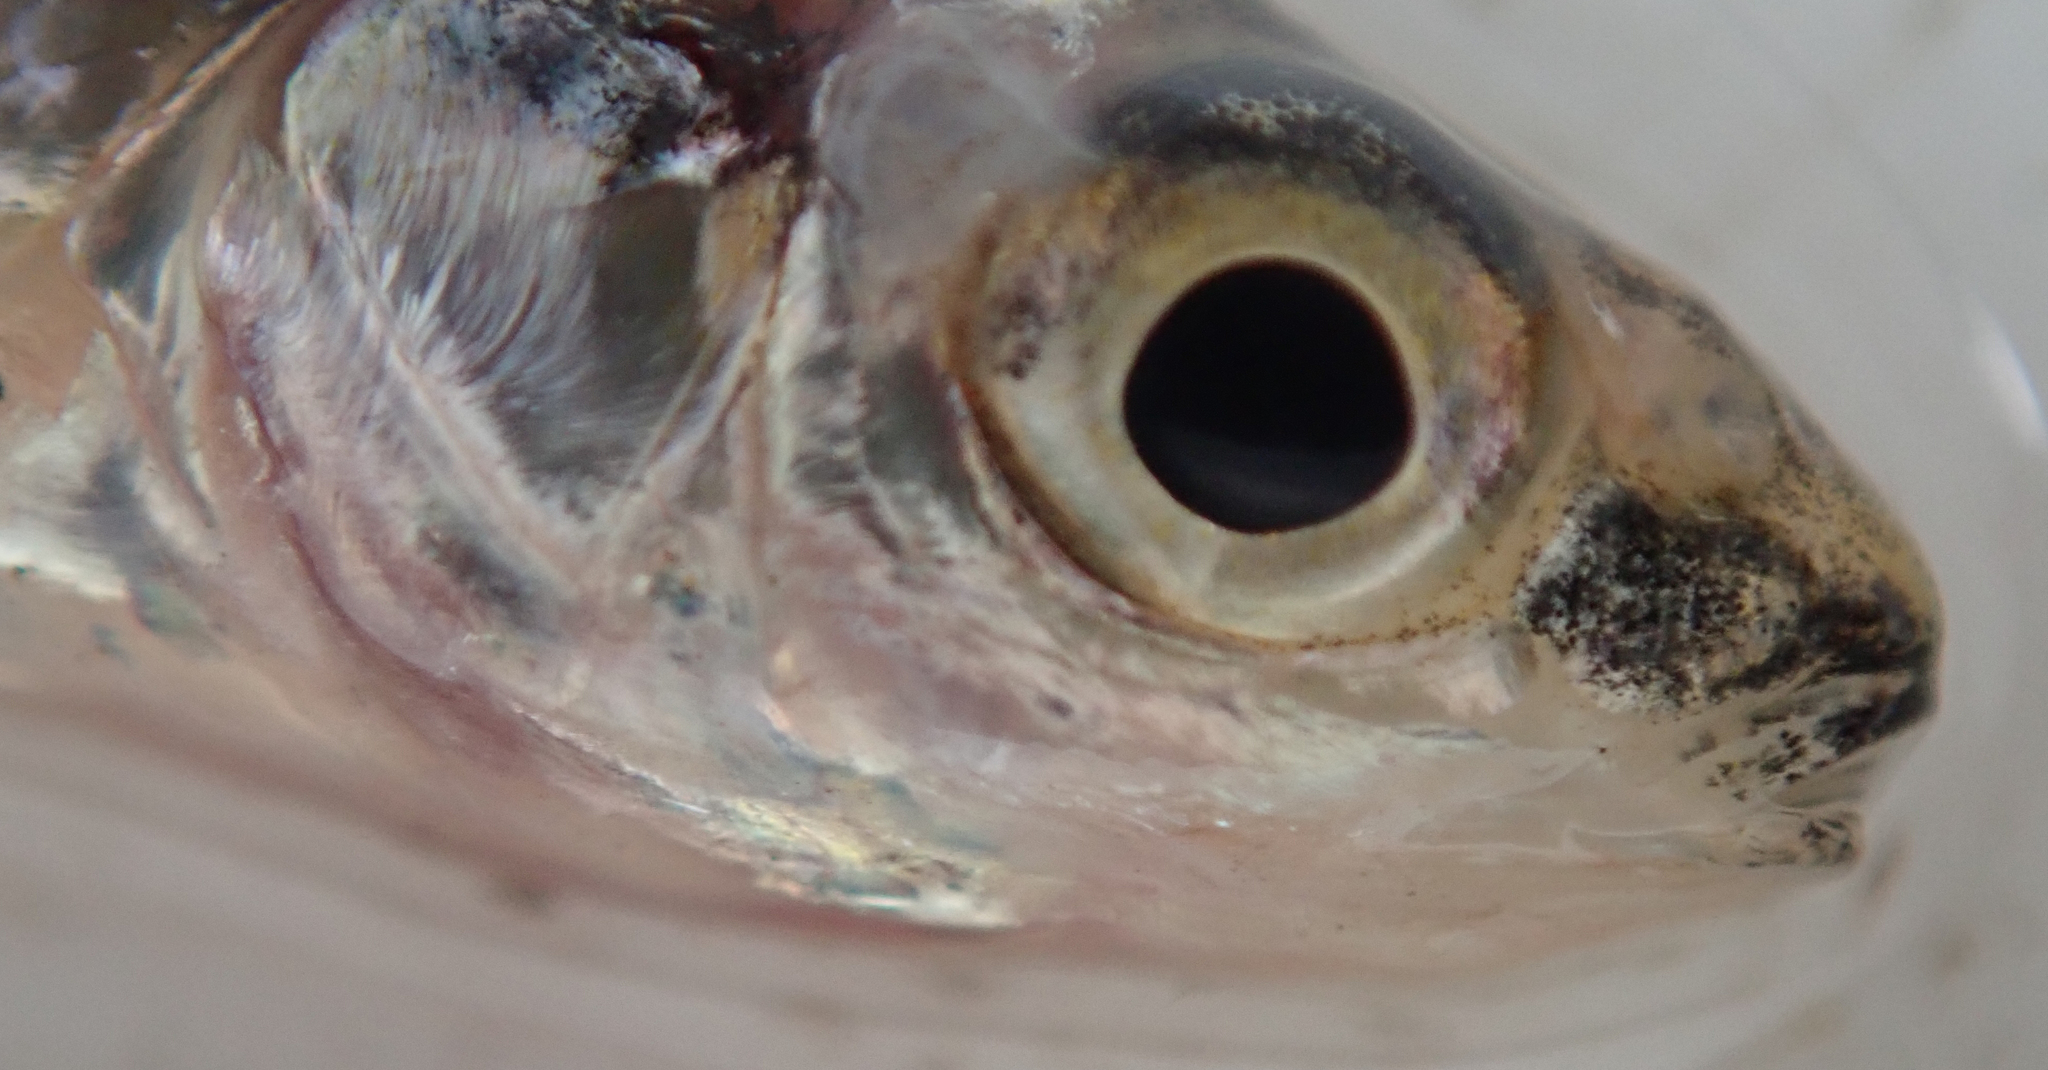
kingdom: Animalia
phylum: Chordata
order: Cypriniformes
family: Cyprinidae
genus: Enteromius
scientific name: Enteromius barnardi
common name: Blackback barb
